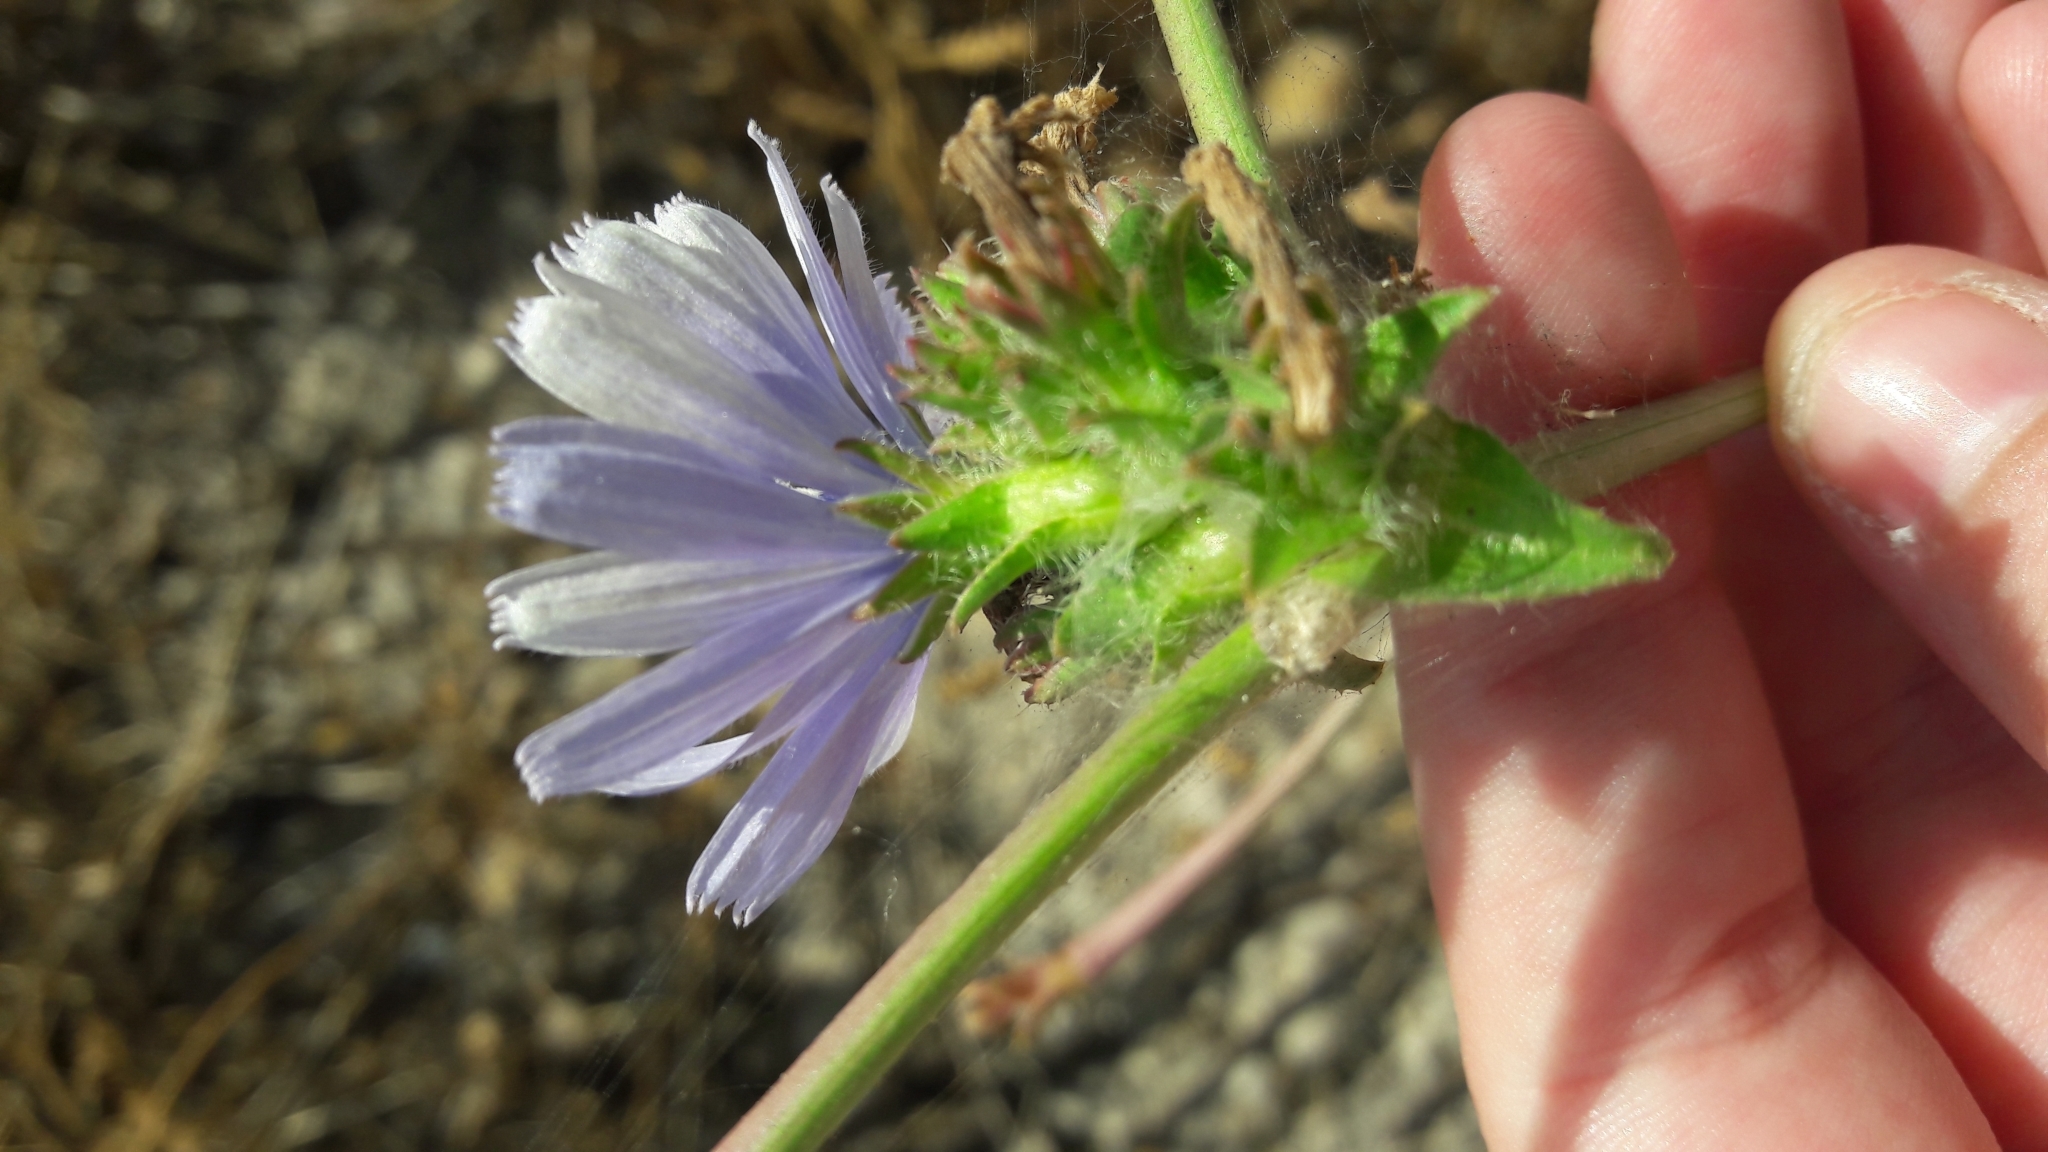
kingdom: Plantae
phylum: Tracheophyta
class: Magnoliopsida
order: Asterales
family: Asteraceae
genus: Cichorium
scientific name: Cichorium endivia
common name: Endive
